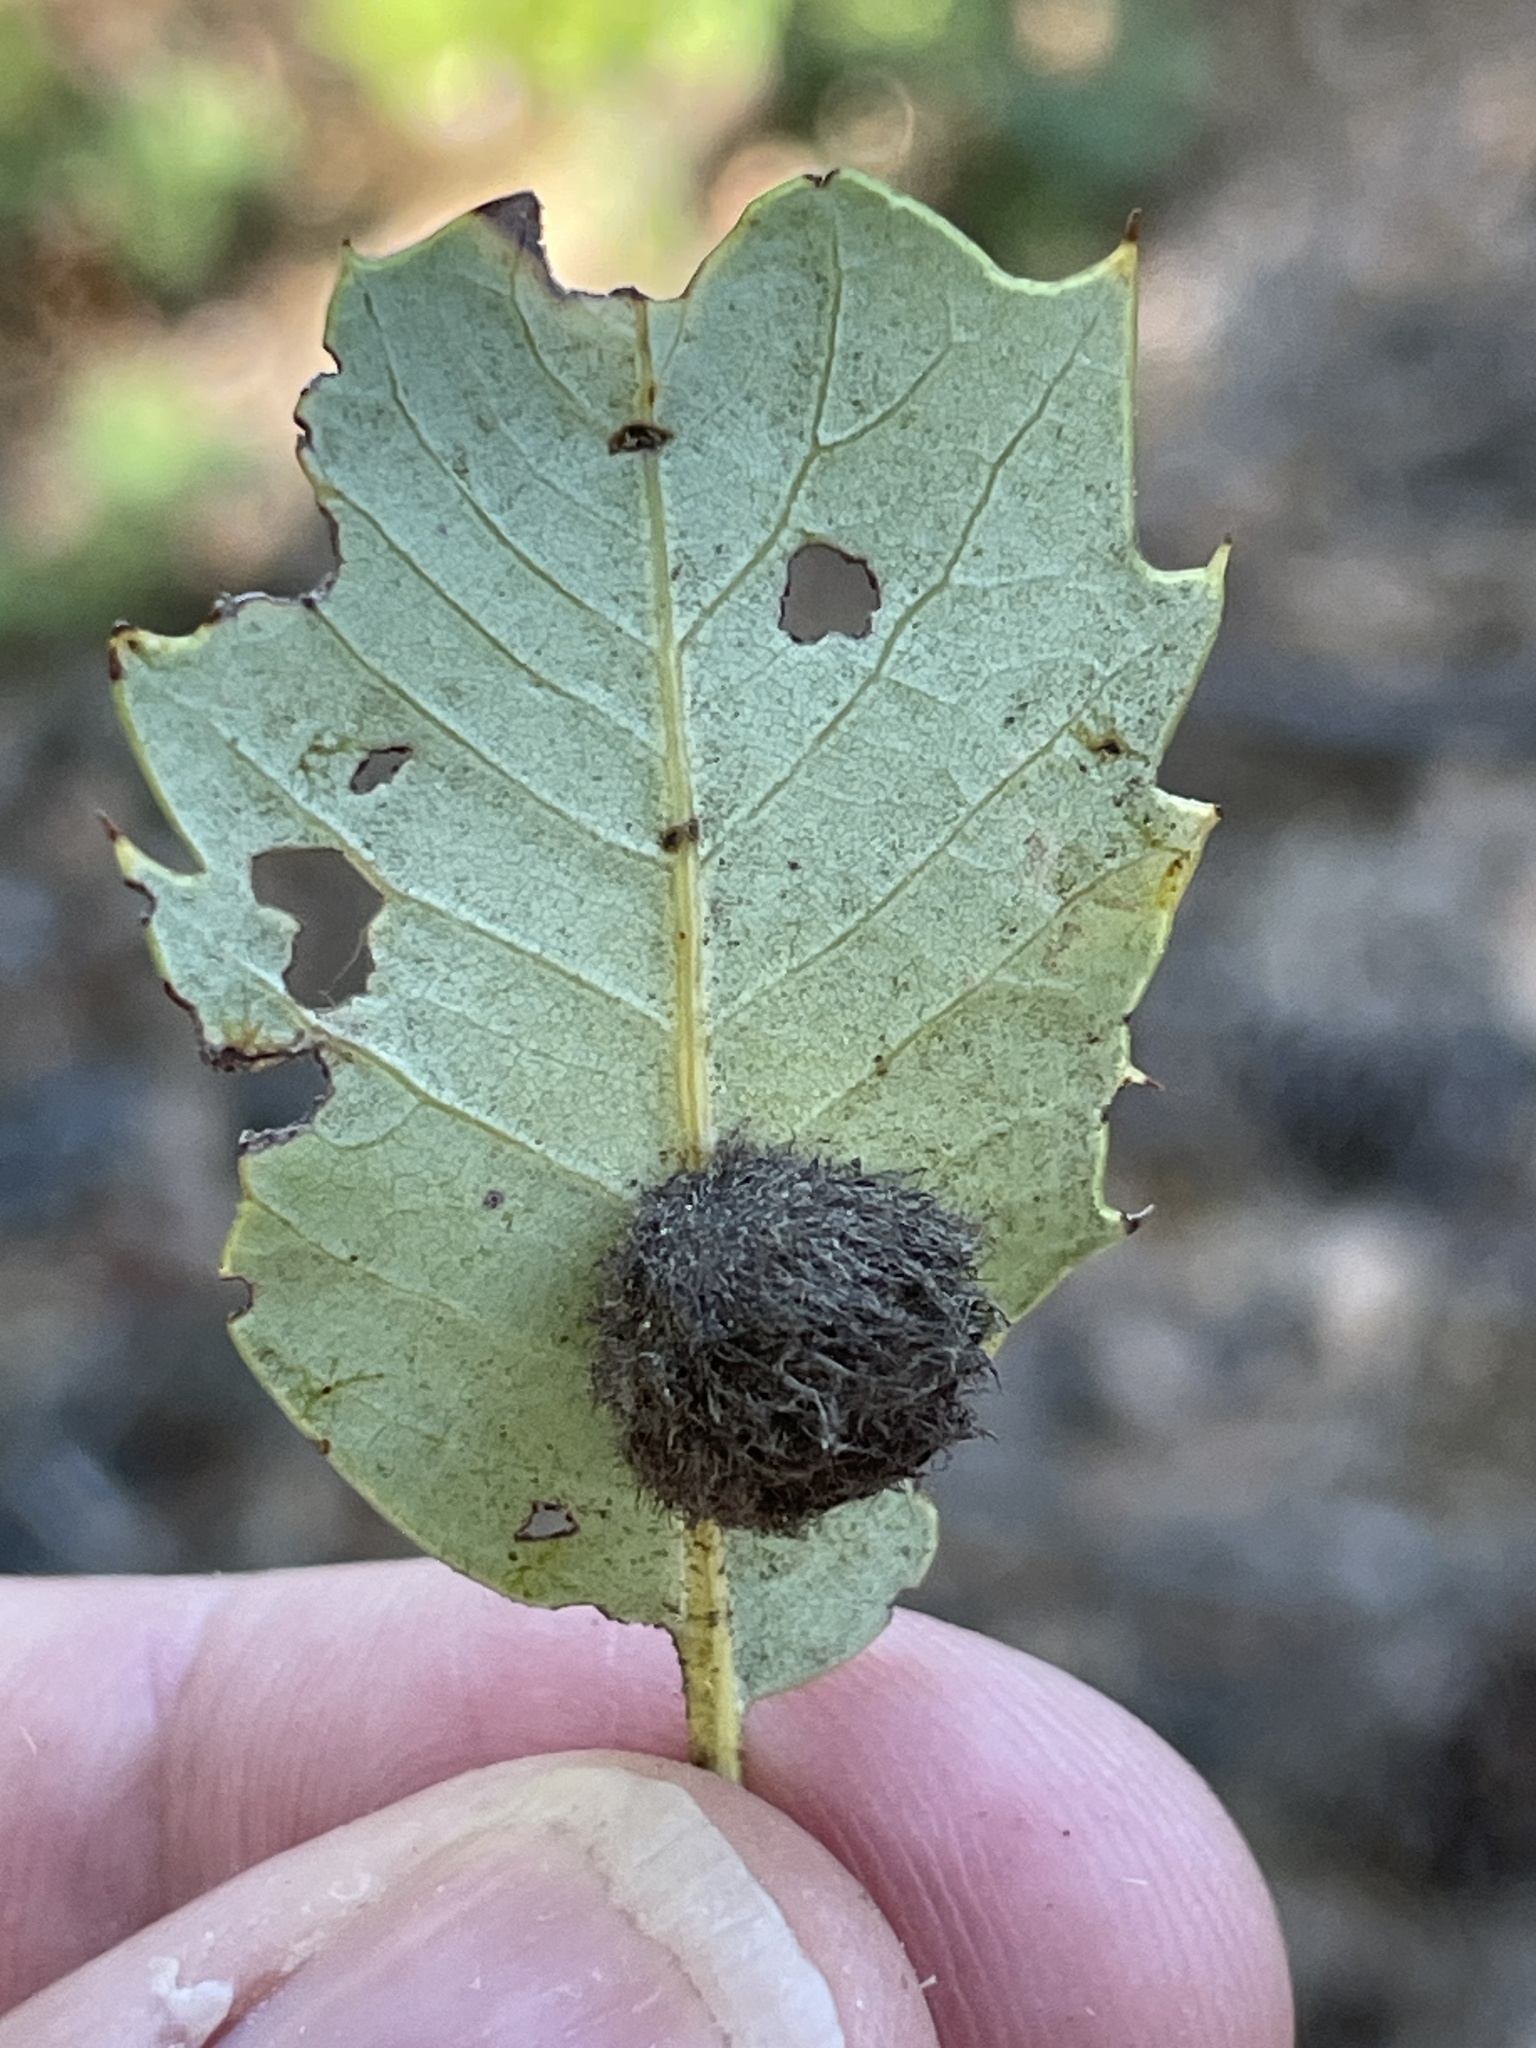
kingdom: Animalia
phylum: Arthropoda
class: Insecta
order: Hymenoptera
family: Cynipidae
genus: Disholandricus
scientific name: Disholandricus
